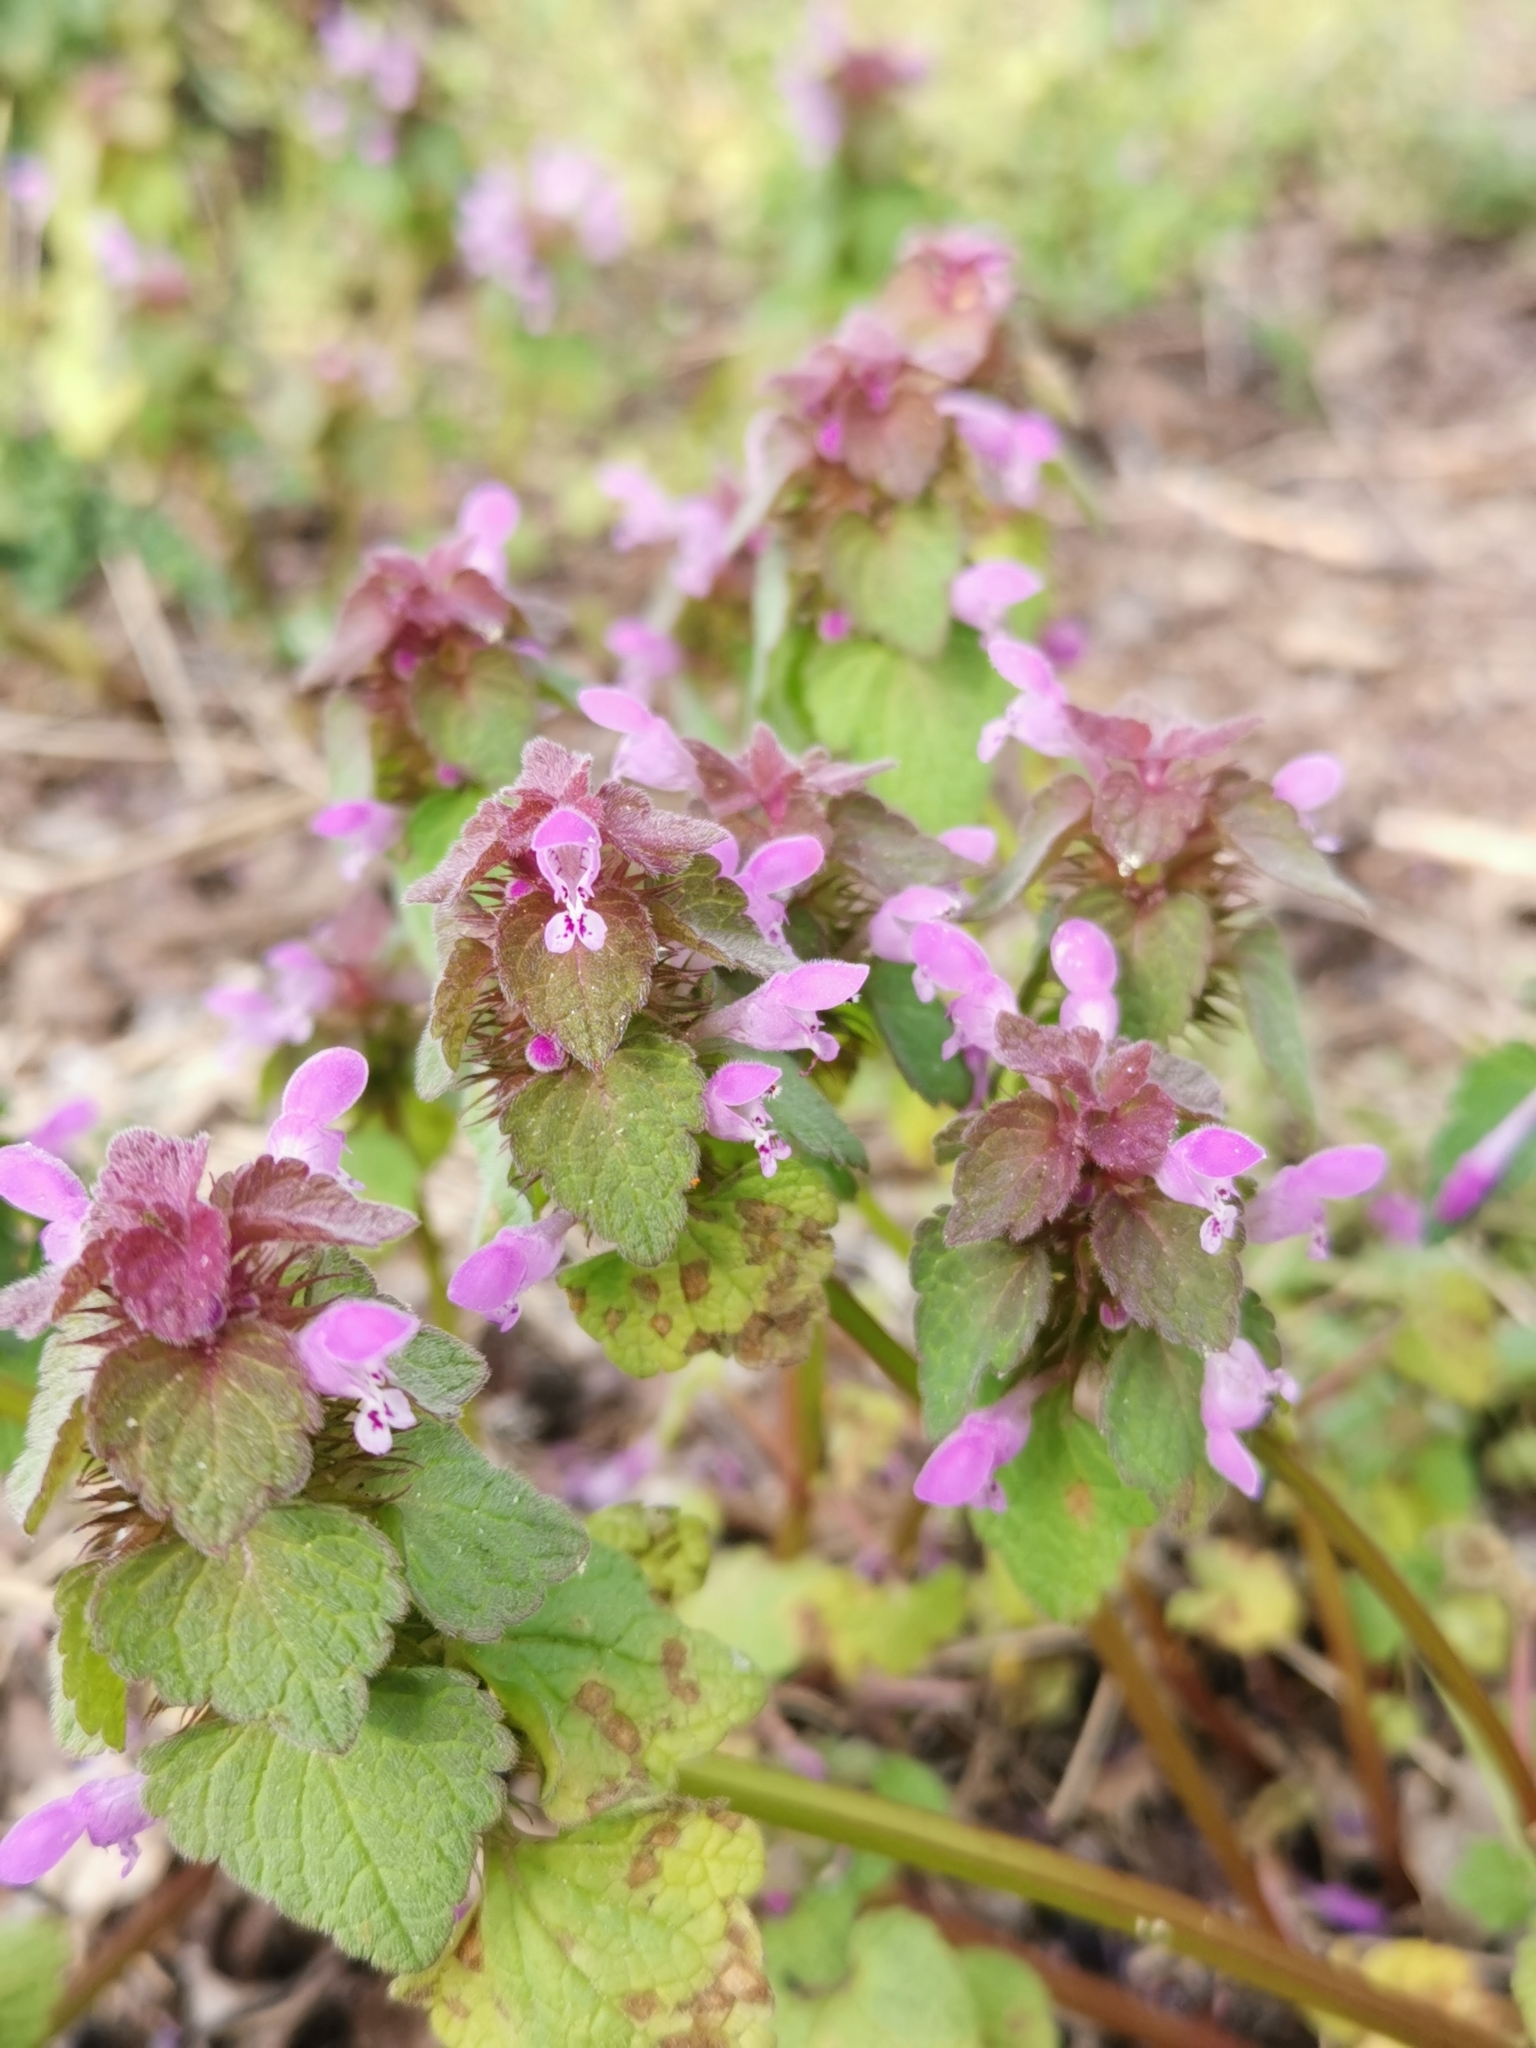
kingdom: Plantae
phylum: Tracheophyta
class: Magnoliopsida
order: Lamiales
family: Lamiaceae
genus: Lamium
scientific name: Lamium purpureum
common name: Red dead-nettle
